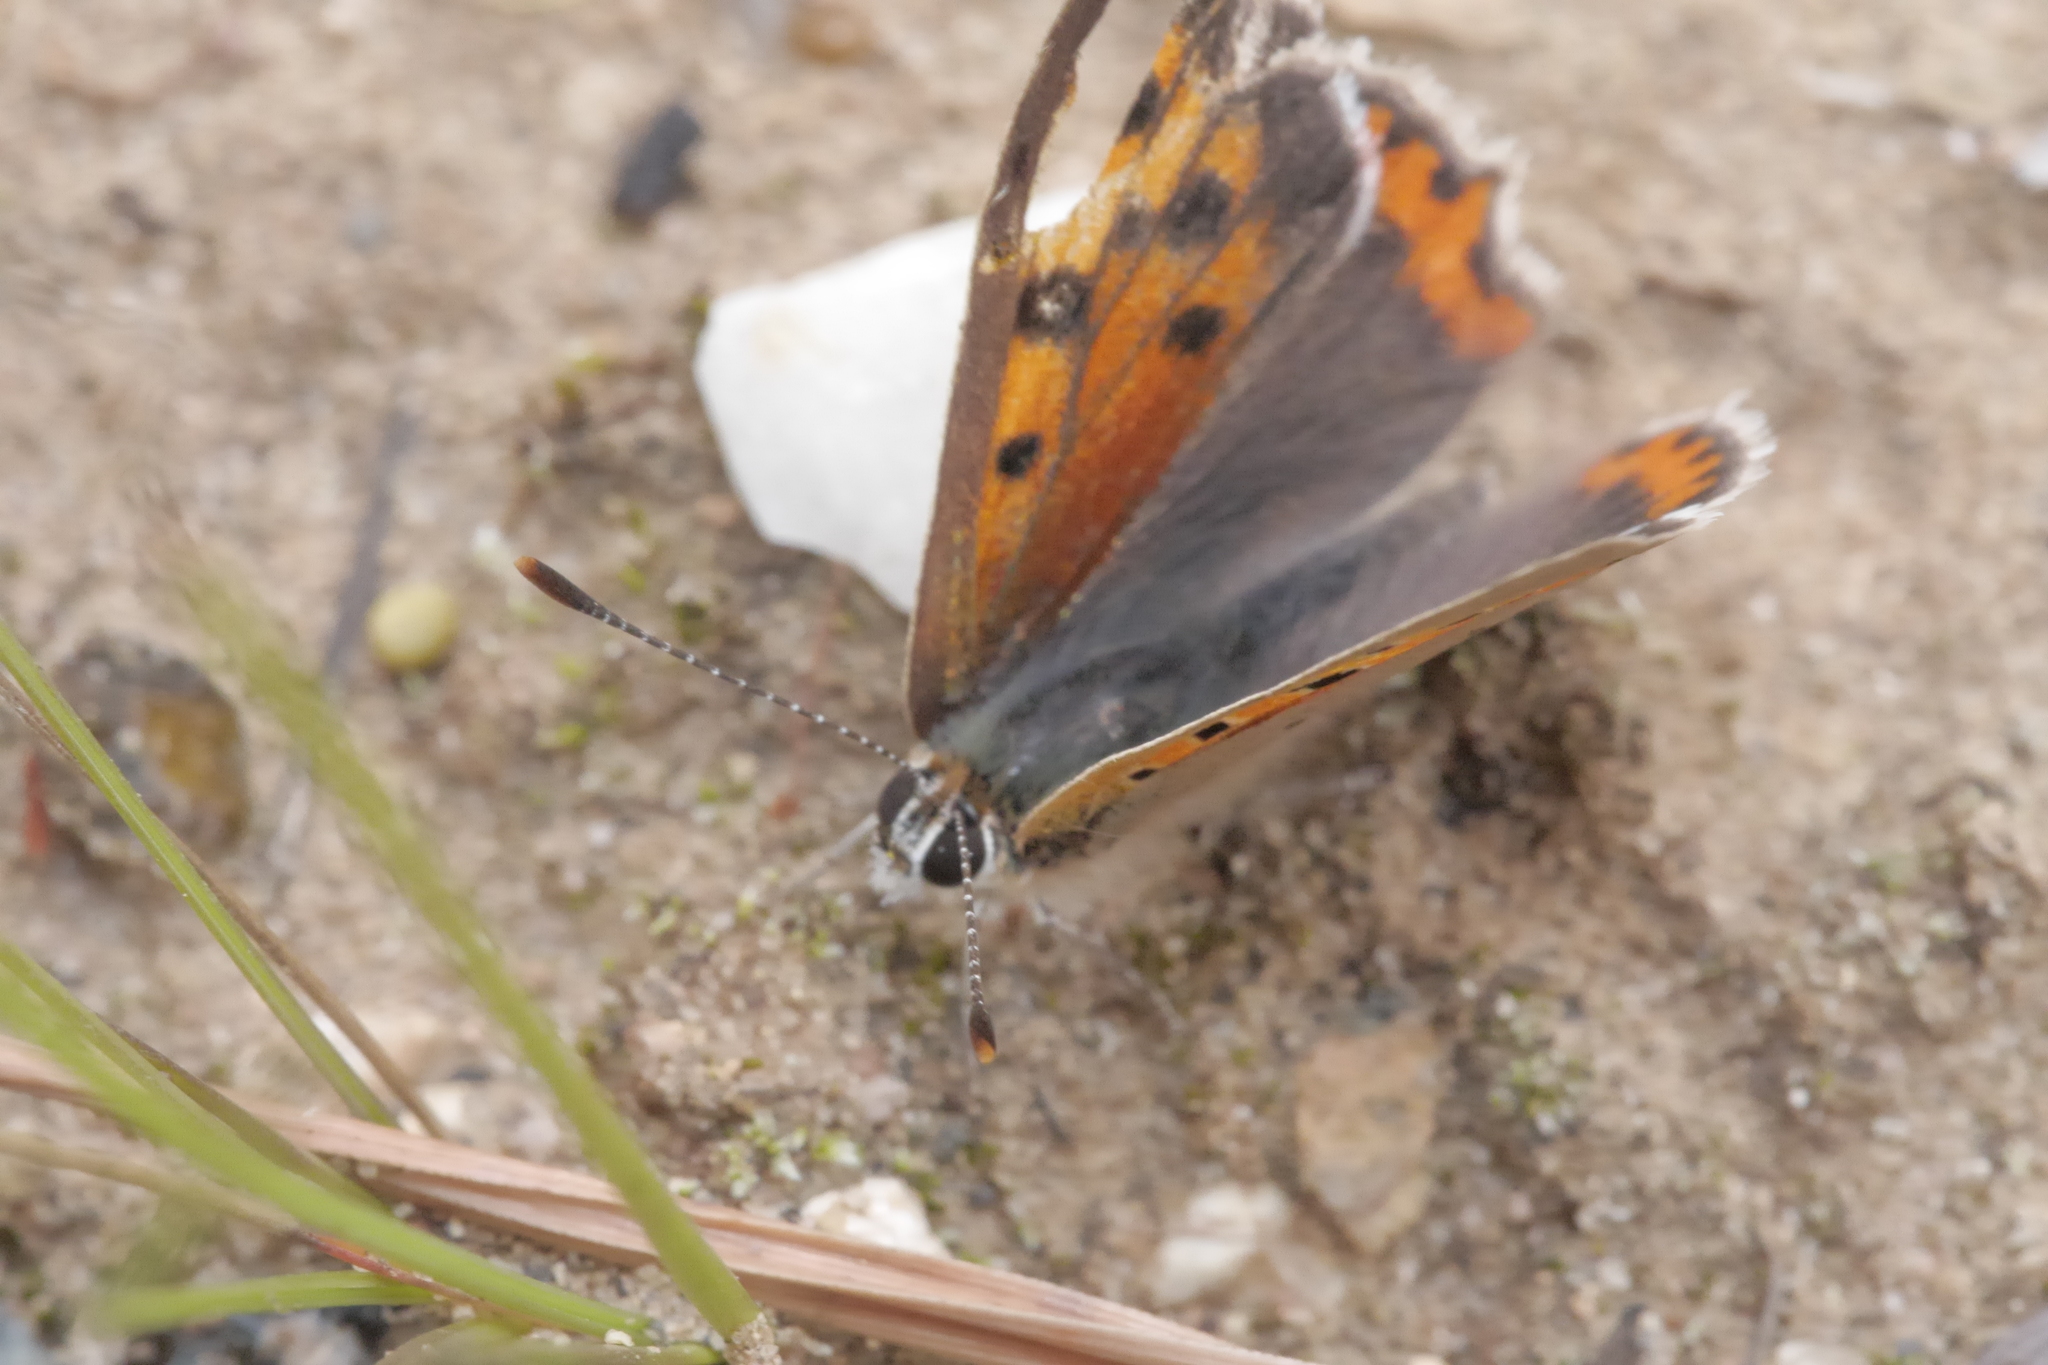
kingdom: Animalia
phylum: Arthropoda
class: Insecta
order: Lepidoptera
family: Lycaenidae
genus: Lycaena
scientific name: Lycaena phlaeas
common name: Small copper
